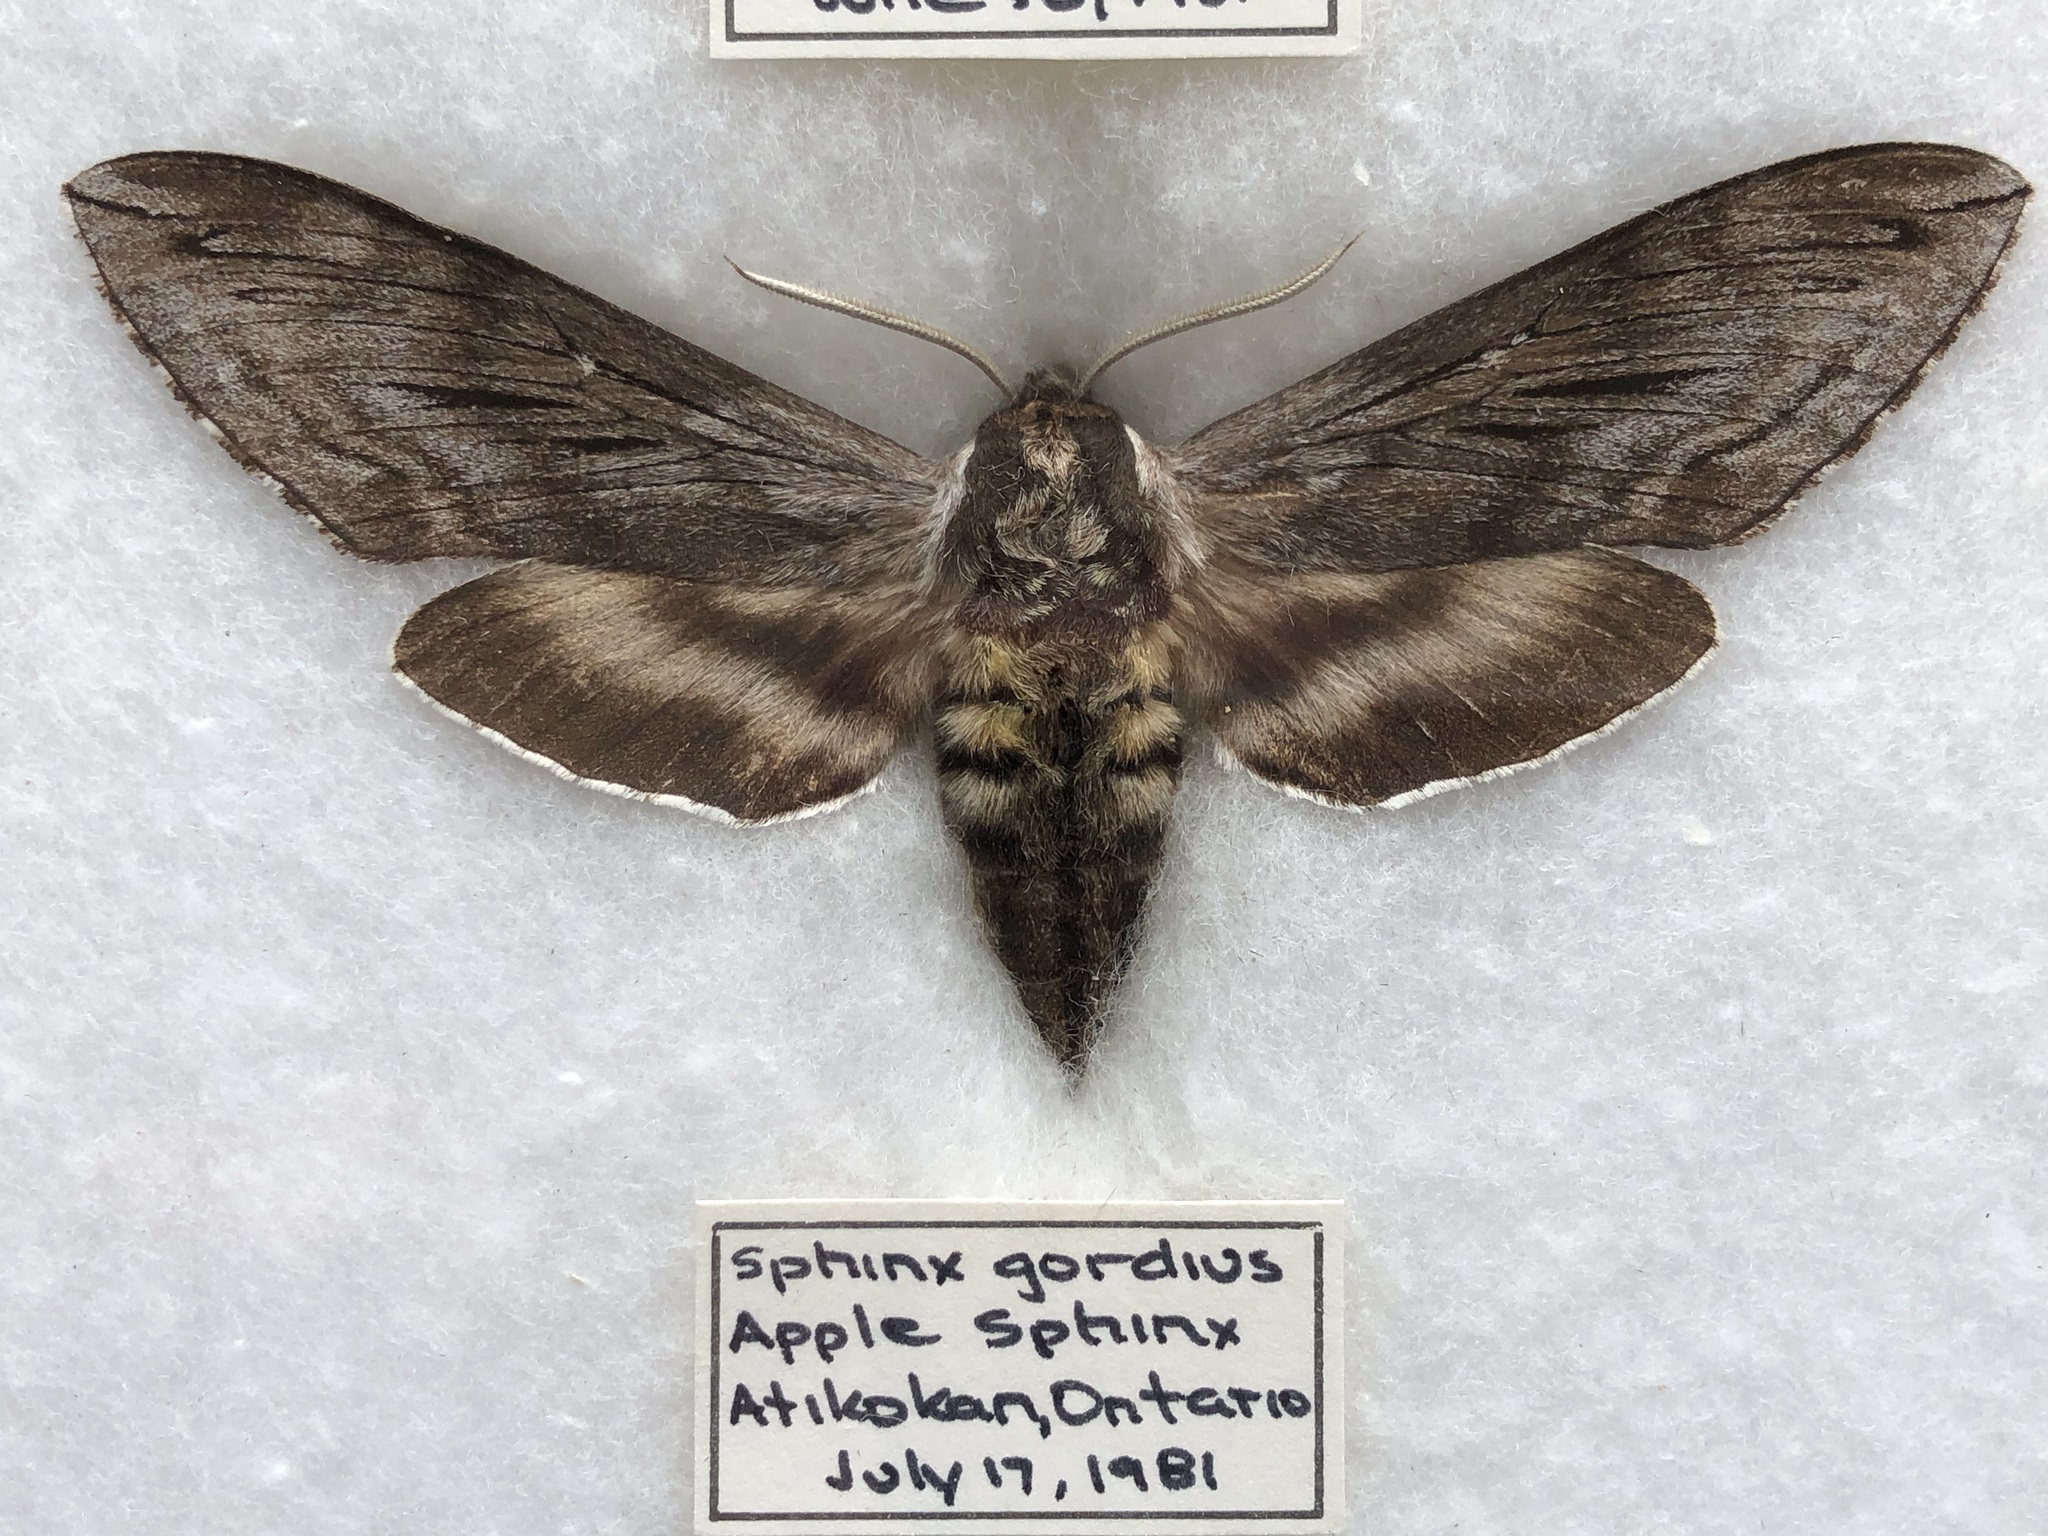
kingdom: Animalia
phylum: Arthropoda
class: Insecta
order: Lepidoptera
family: Sphingidae
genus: Sphinx
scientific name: Sphinx poecila
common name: Northern apple sphinx
